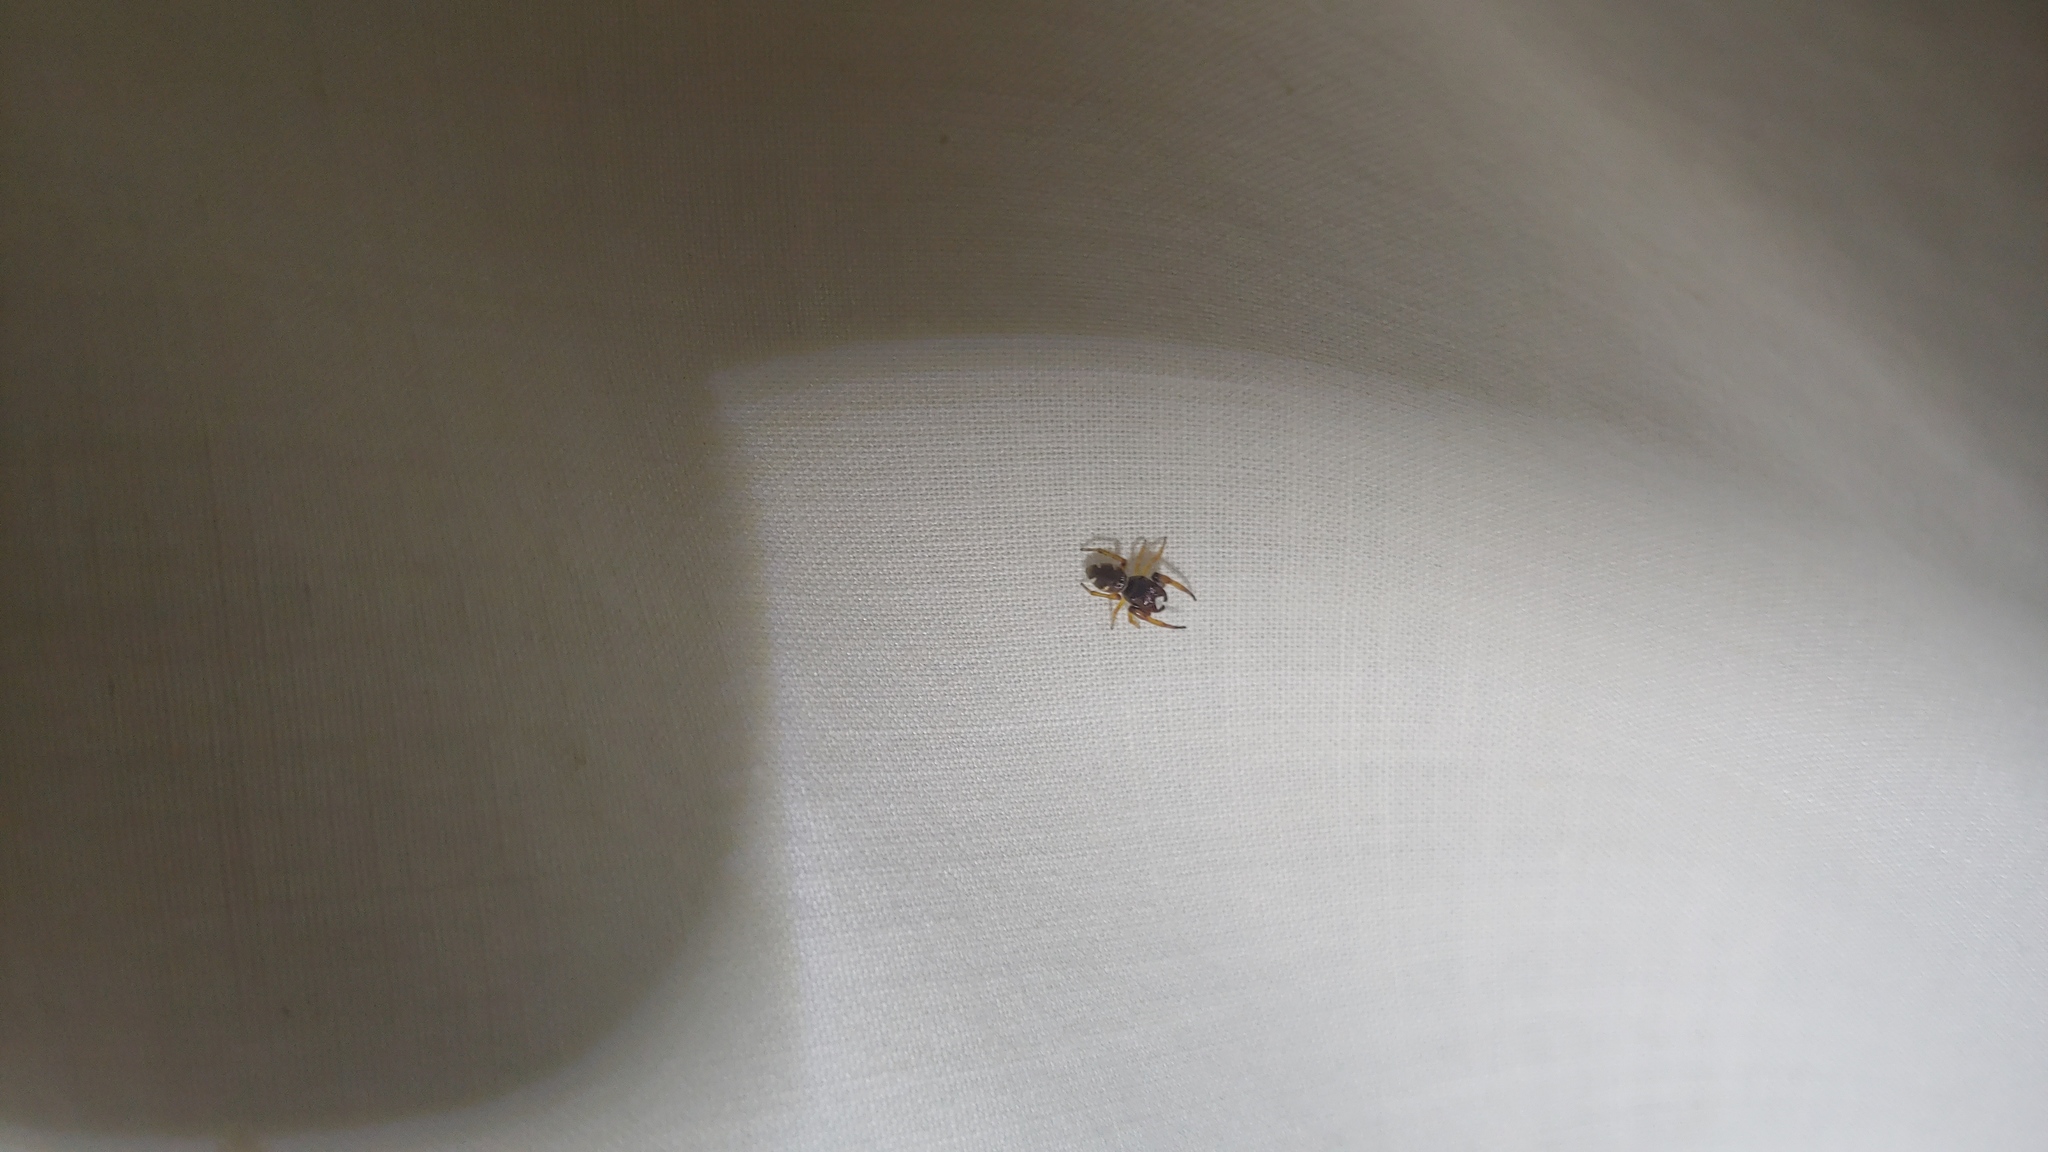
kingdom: Animalia
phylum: Arthropoda
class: Arachnida
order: Araneae
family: Salticidae
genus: Zygoballus
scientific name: Zygoballus rufipes
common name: Jumping spiders
